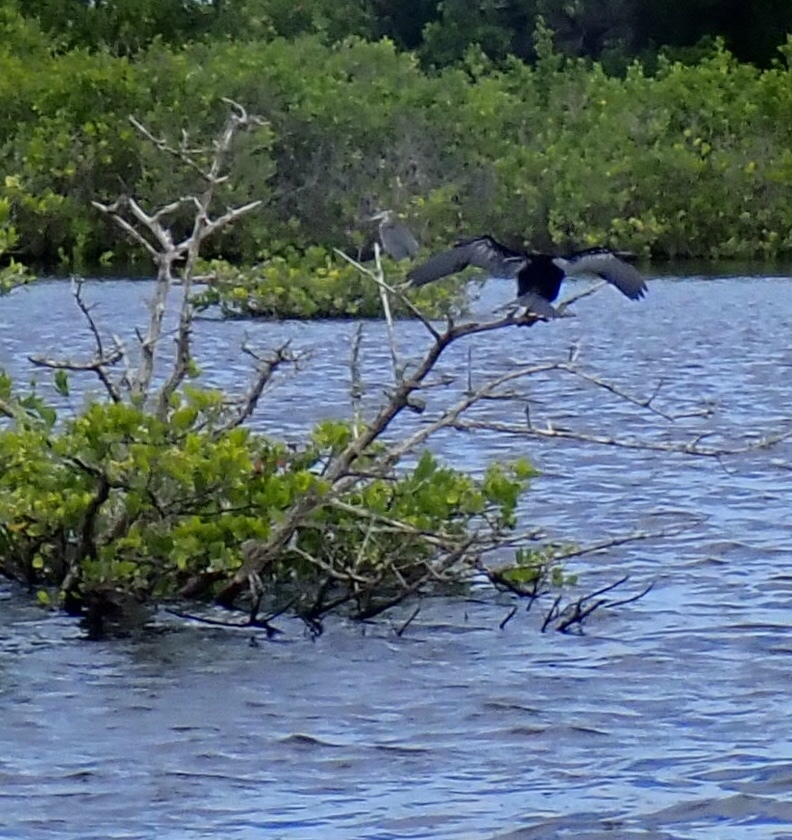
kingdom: Animalia
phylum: Chordata
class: Aves
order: Suliformes
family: Anhingidae
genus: Anhinga
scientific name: Anhinga anhinga
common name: Anhinga
